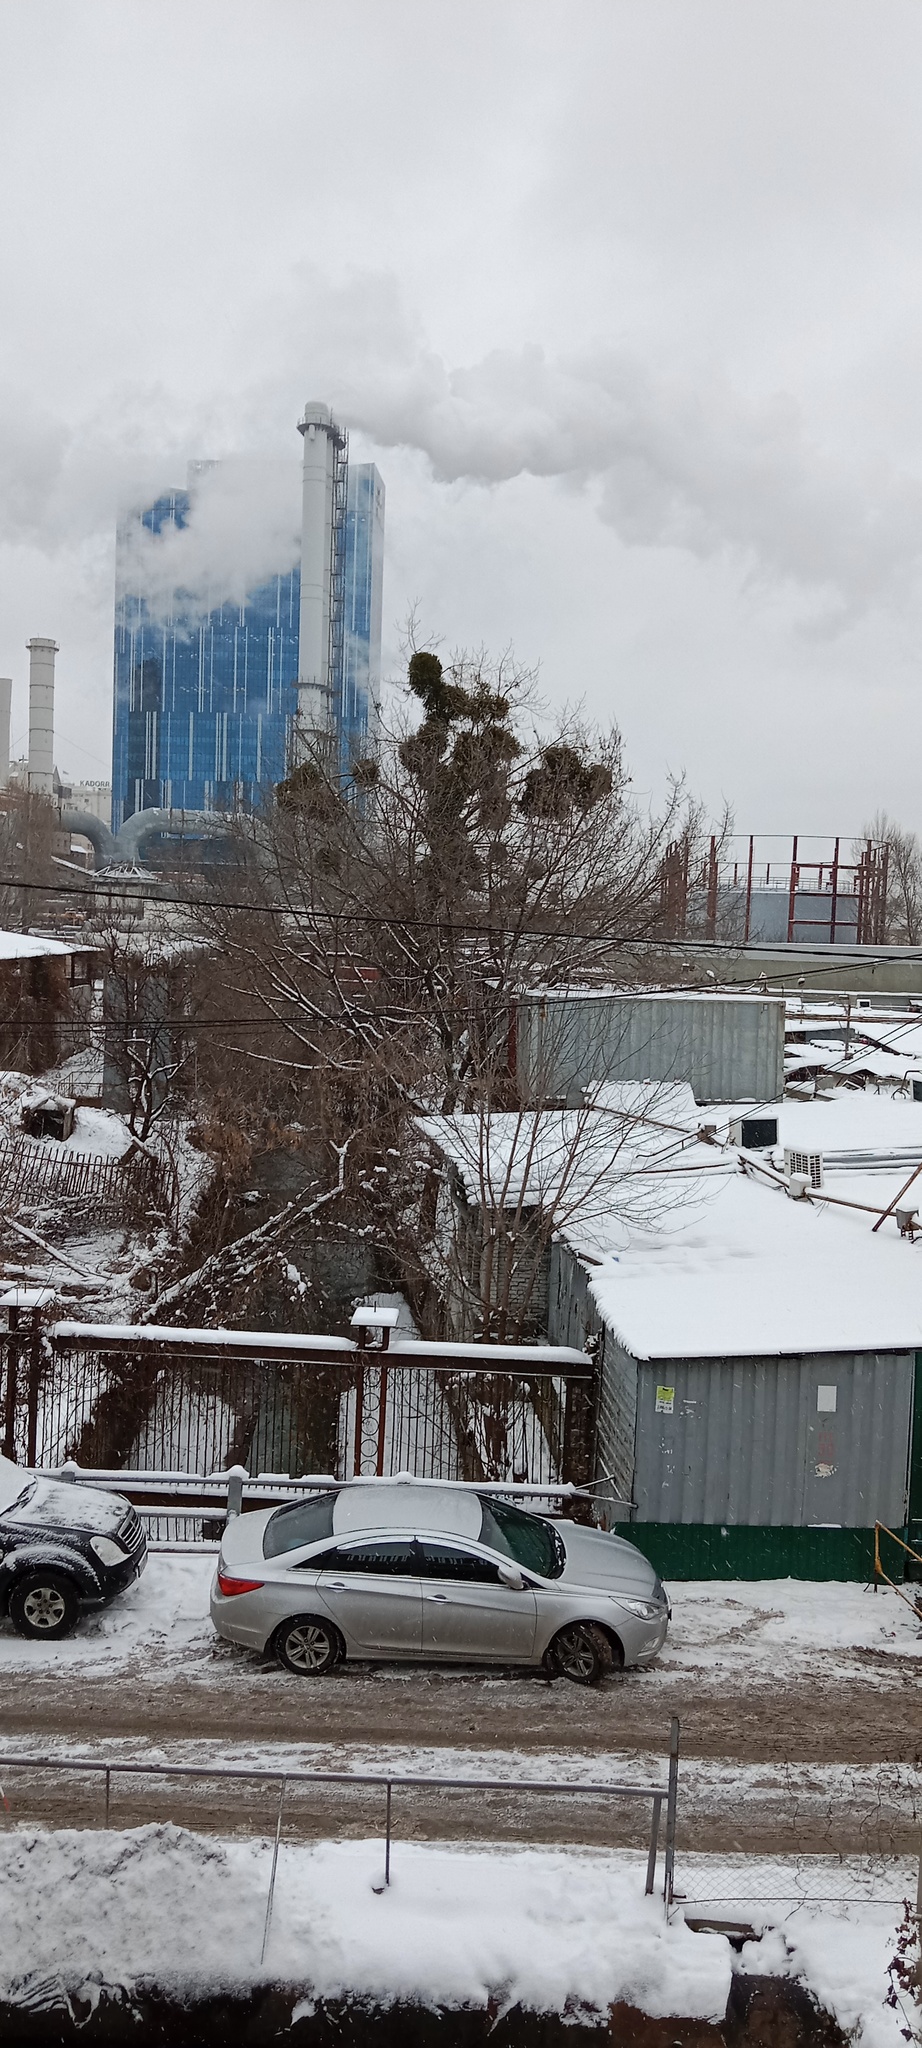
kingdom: Plantae
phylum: Tracheophyta
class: Magnoliopsida
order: Santalales
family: Viscaceae
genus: Viscum
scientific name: Viscum album
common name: Mistletoe
